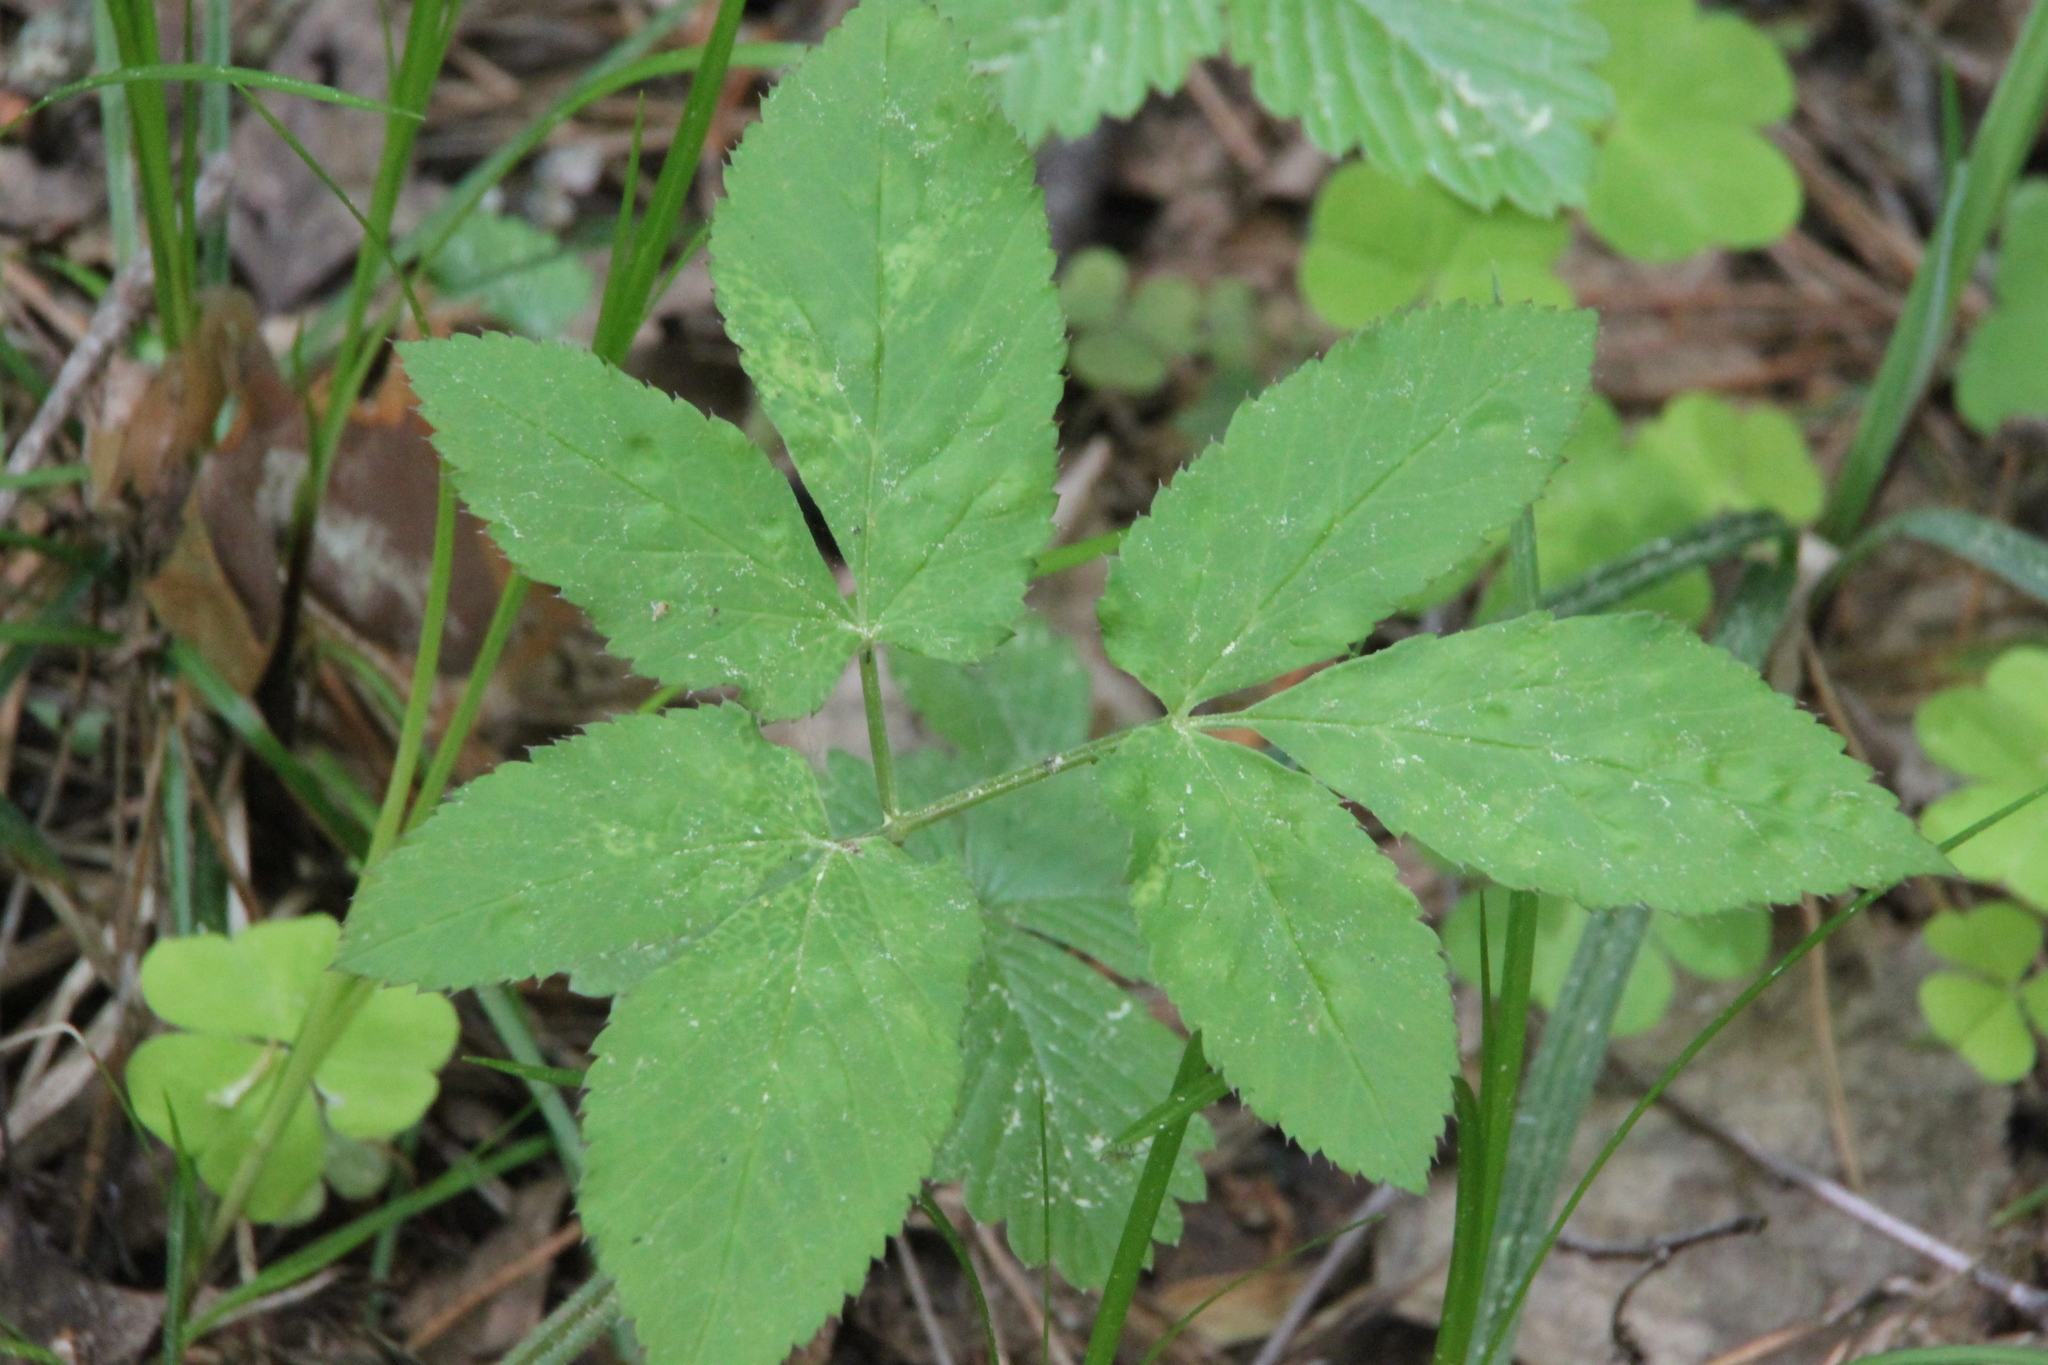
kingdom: Plantae
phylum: Tracheophyta
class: Magnoliopsida
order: Apiales
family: Apiaceae
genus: Aegopodium
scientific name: Aegopodium podagraria
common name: Ground-elder
